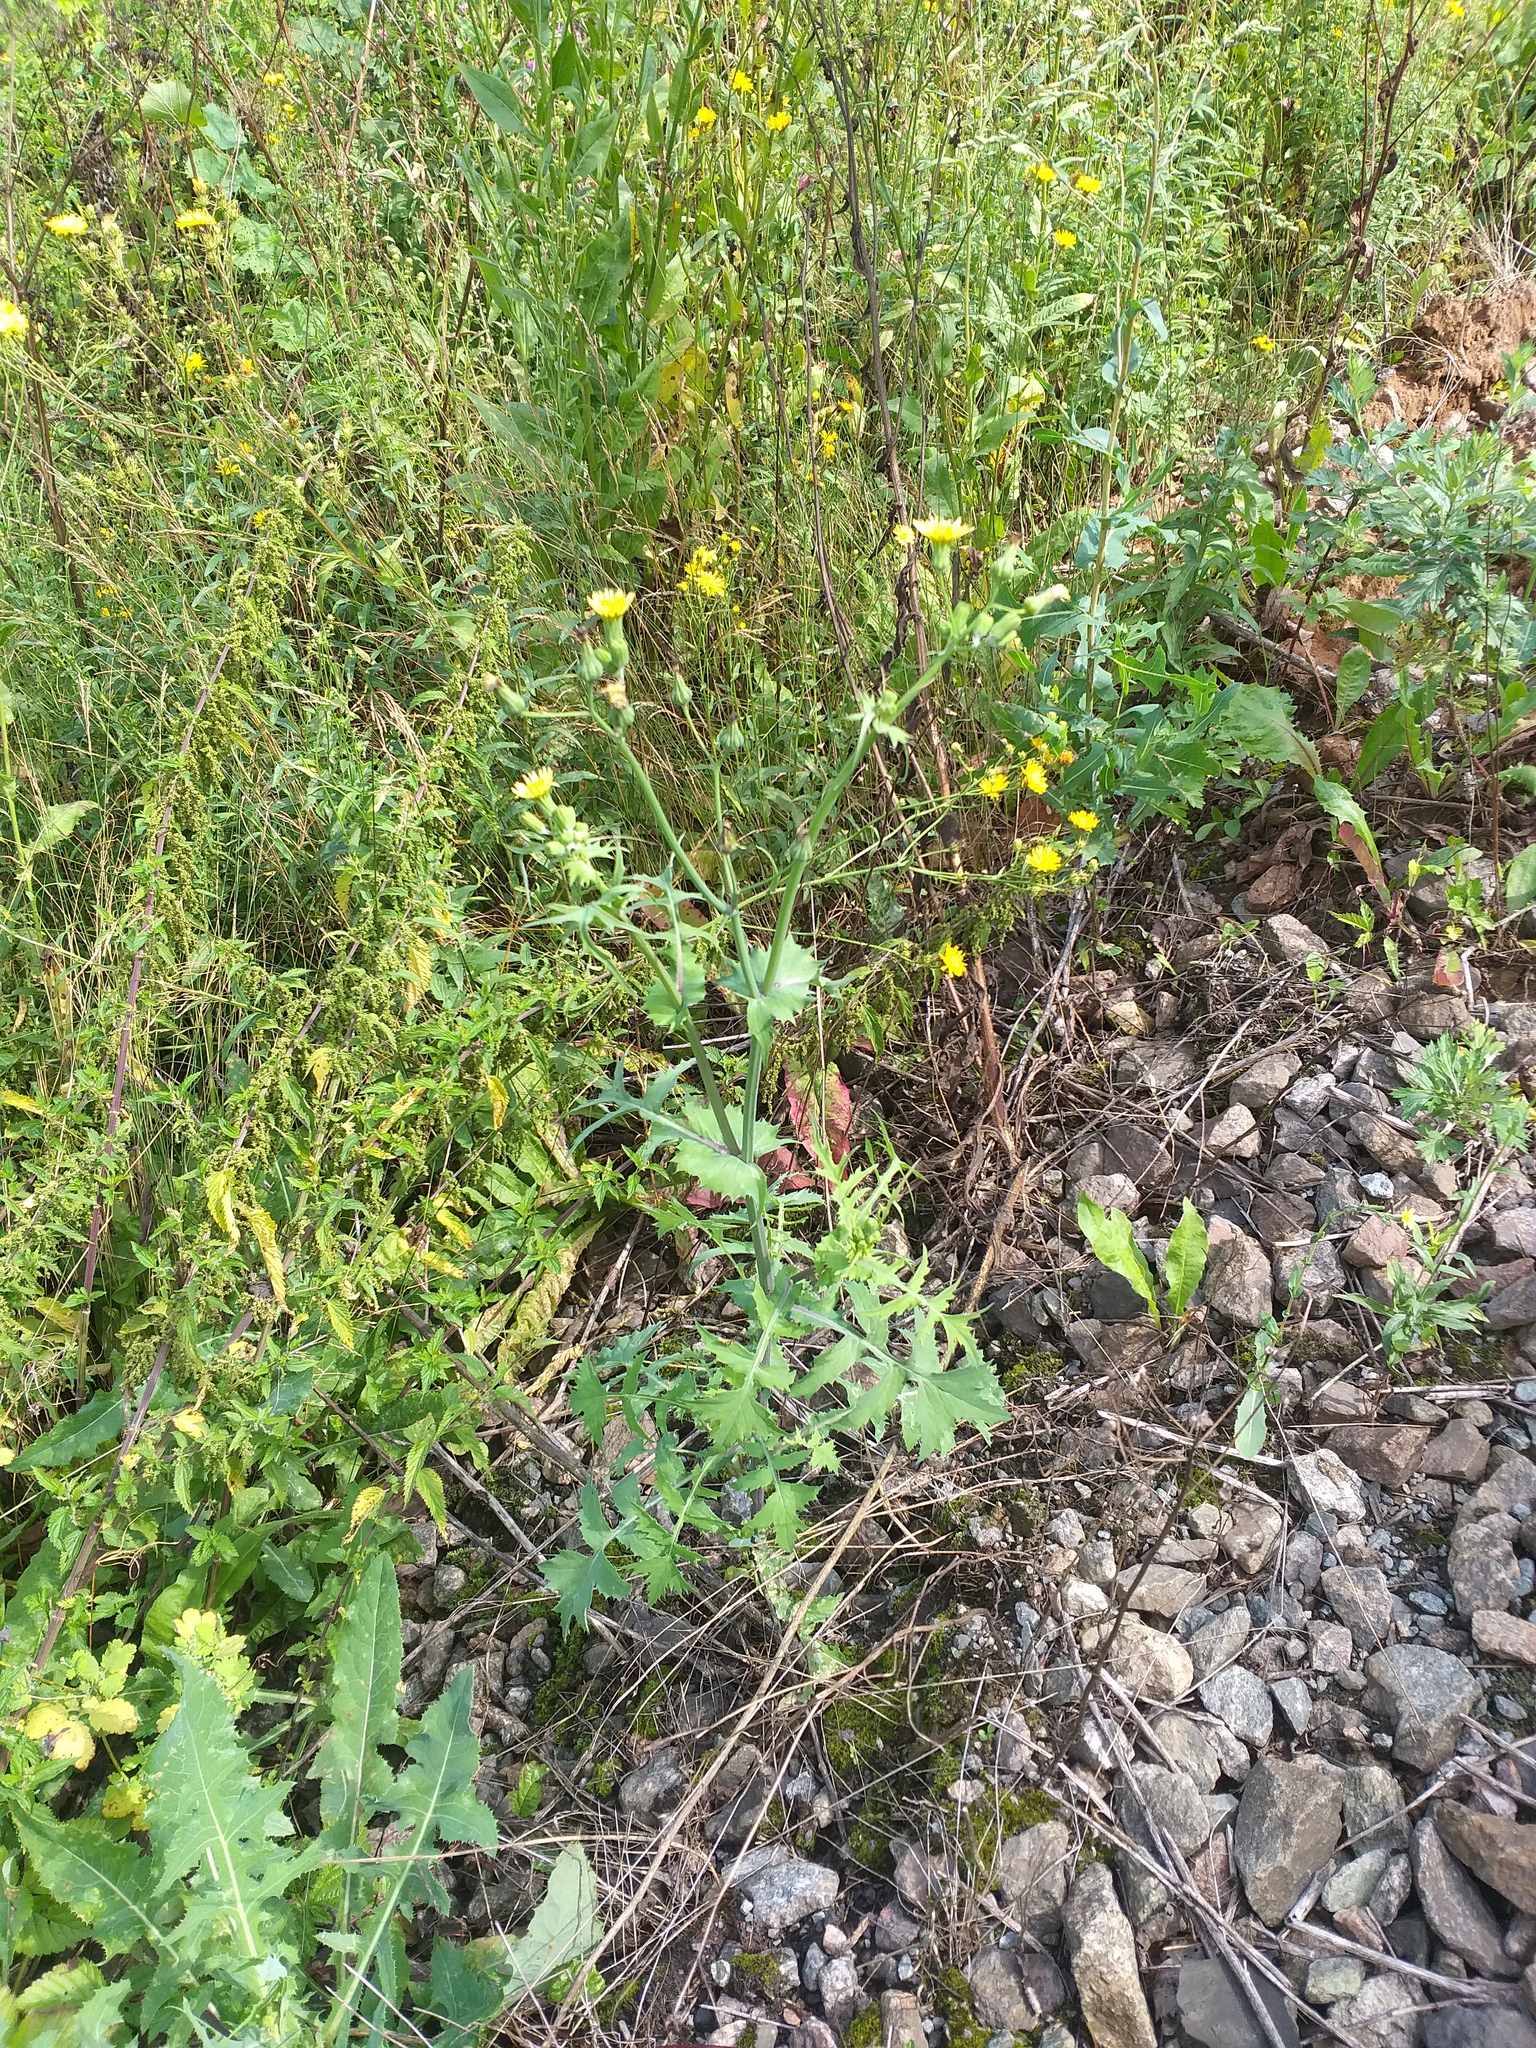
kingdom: Plantae
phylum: Tracheophyta
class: Magnoliopsida
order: Asterales
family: Asteraceae
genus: Sonchus
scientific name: Sonchus oleraceus
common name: Common sowthistle
